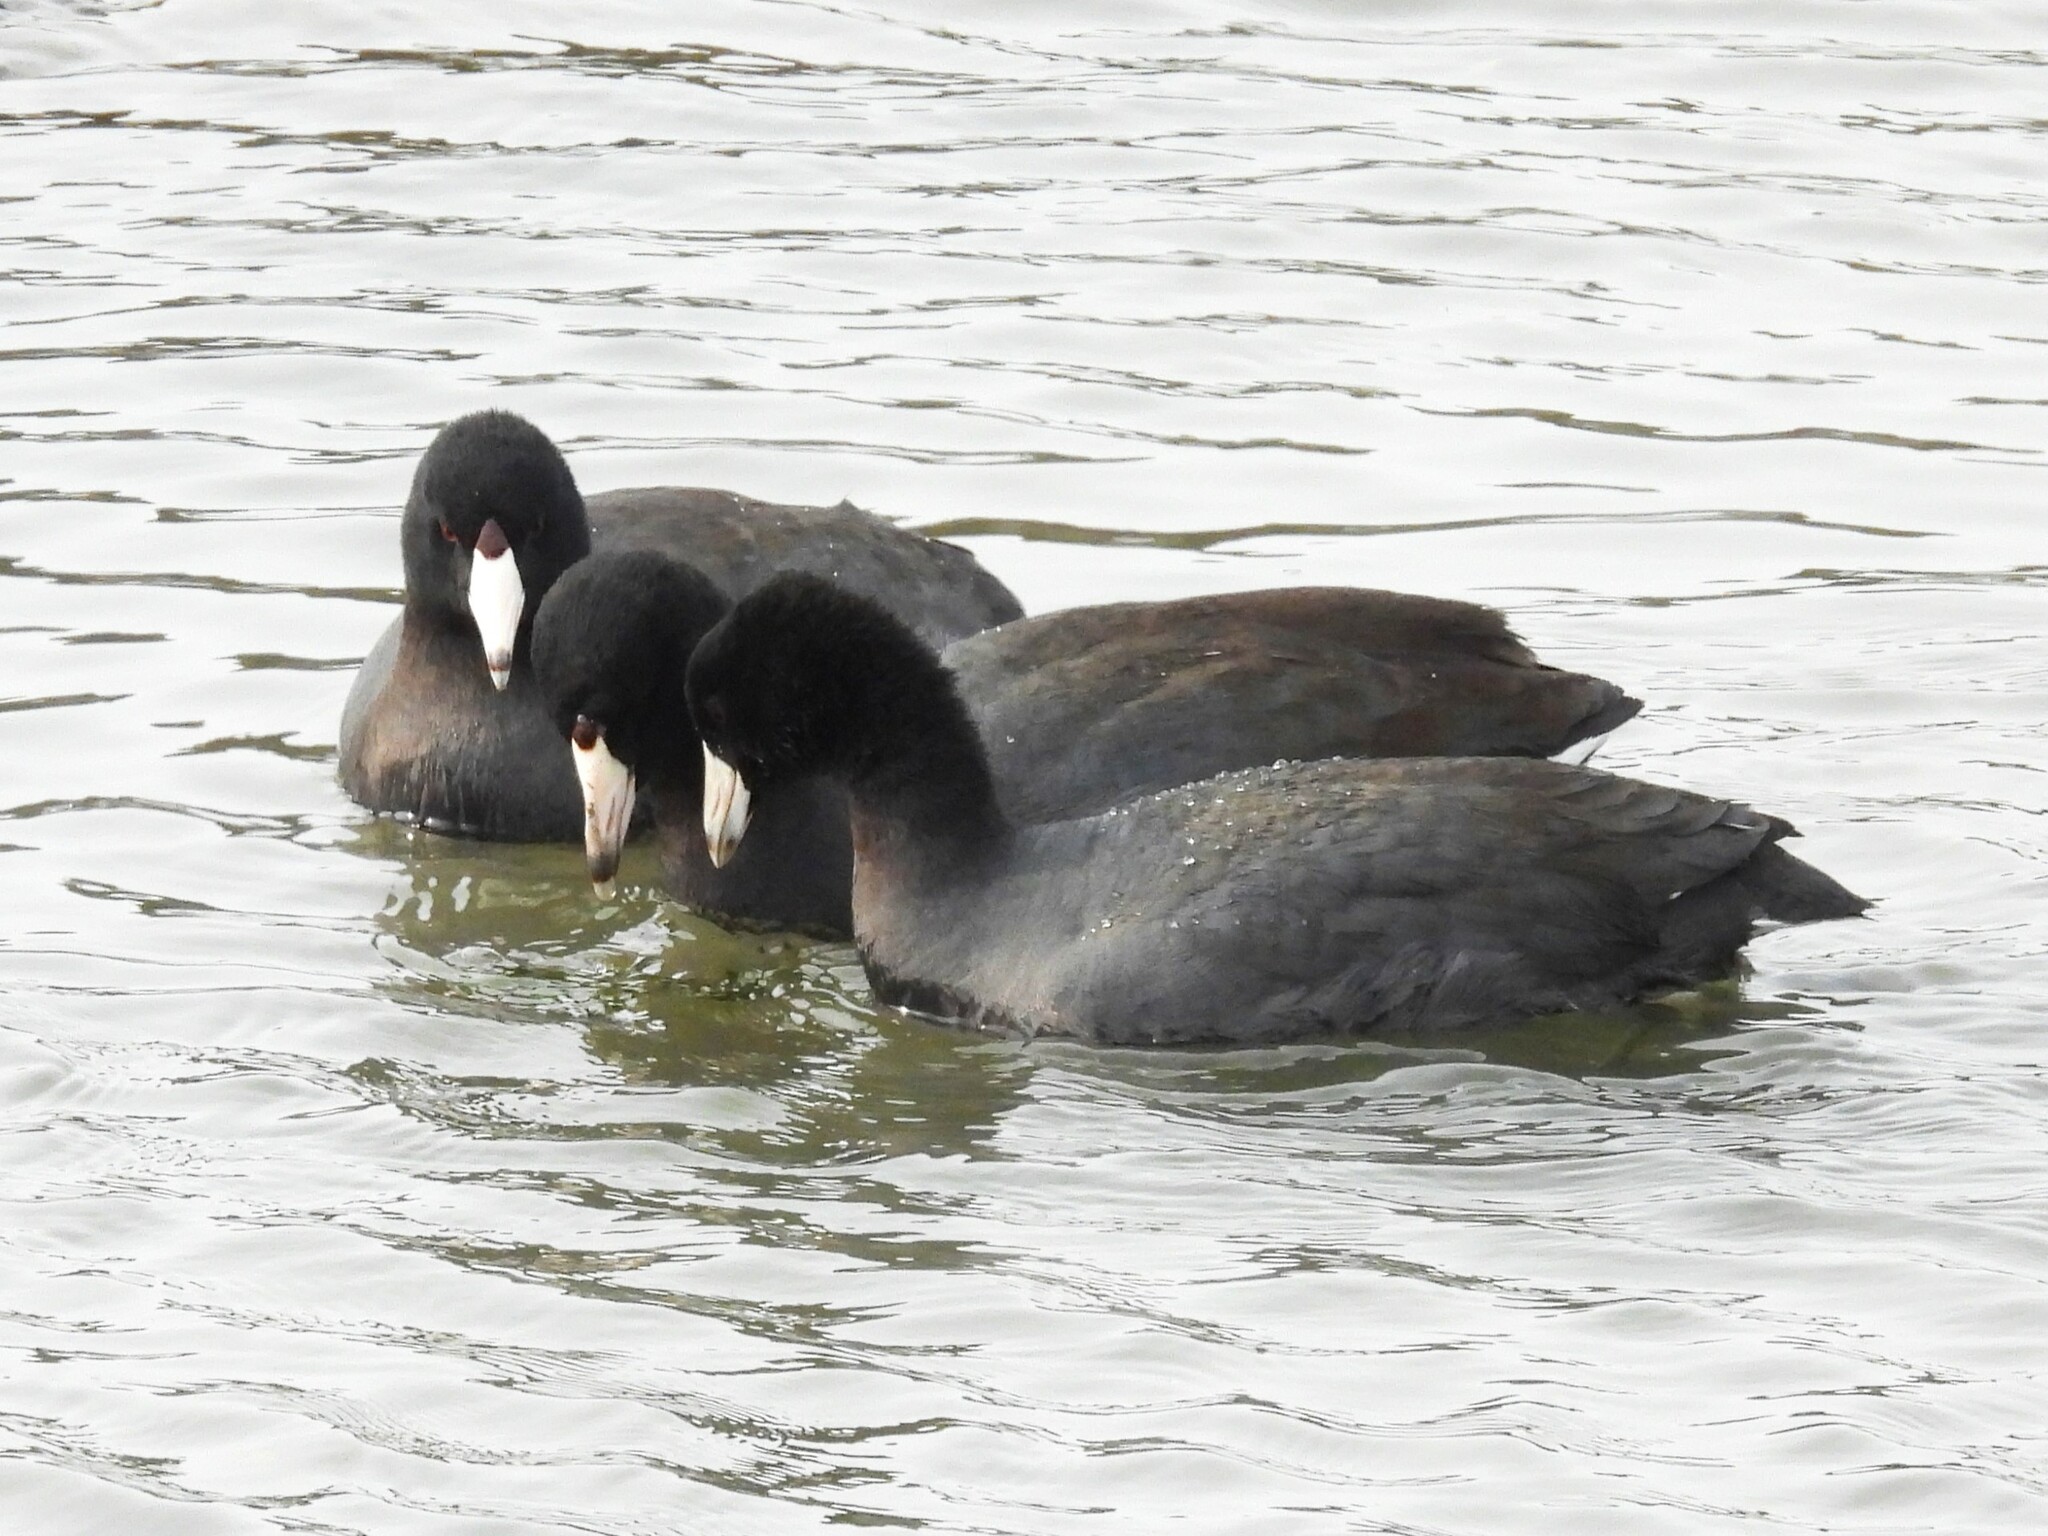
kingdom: Animalia
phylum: Chordata
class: Aves
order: Gruiformes
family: Rallidae
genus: Fulica
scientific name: Fulica americana
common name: American coot
